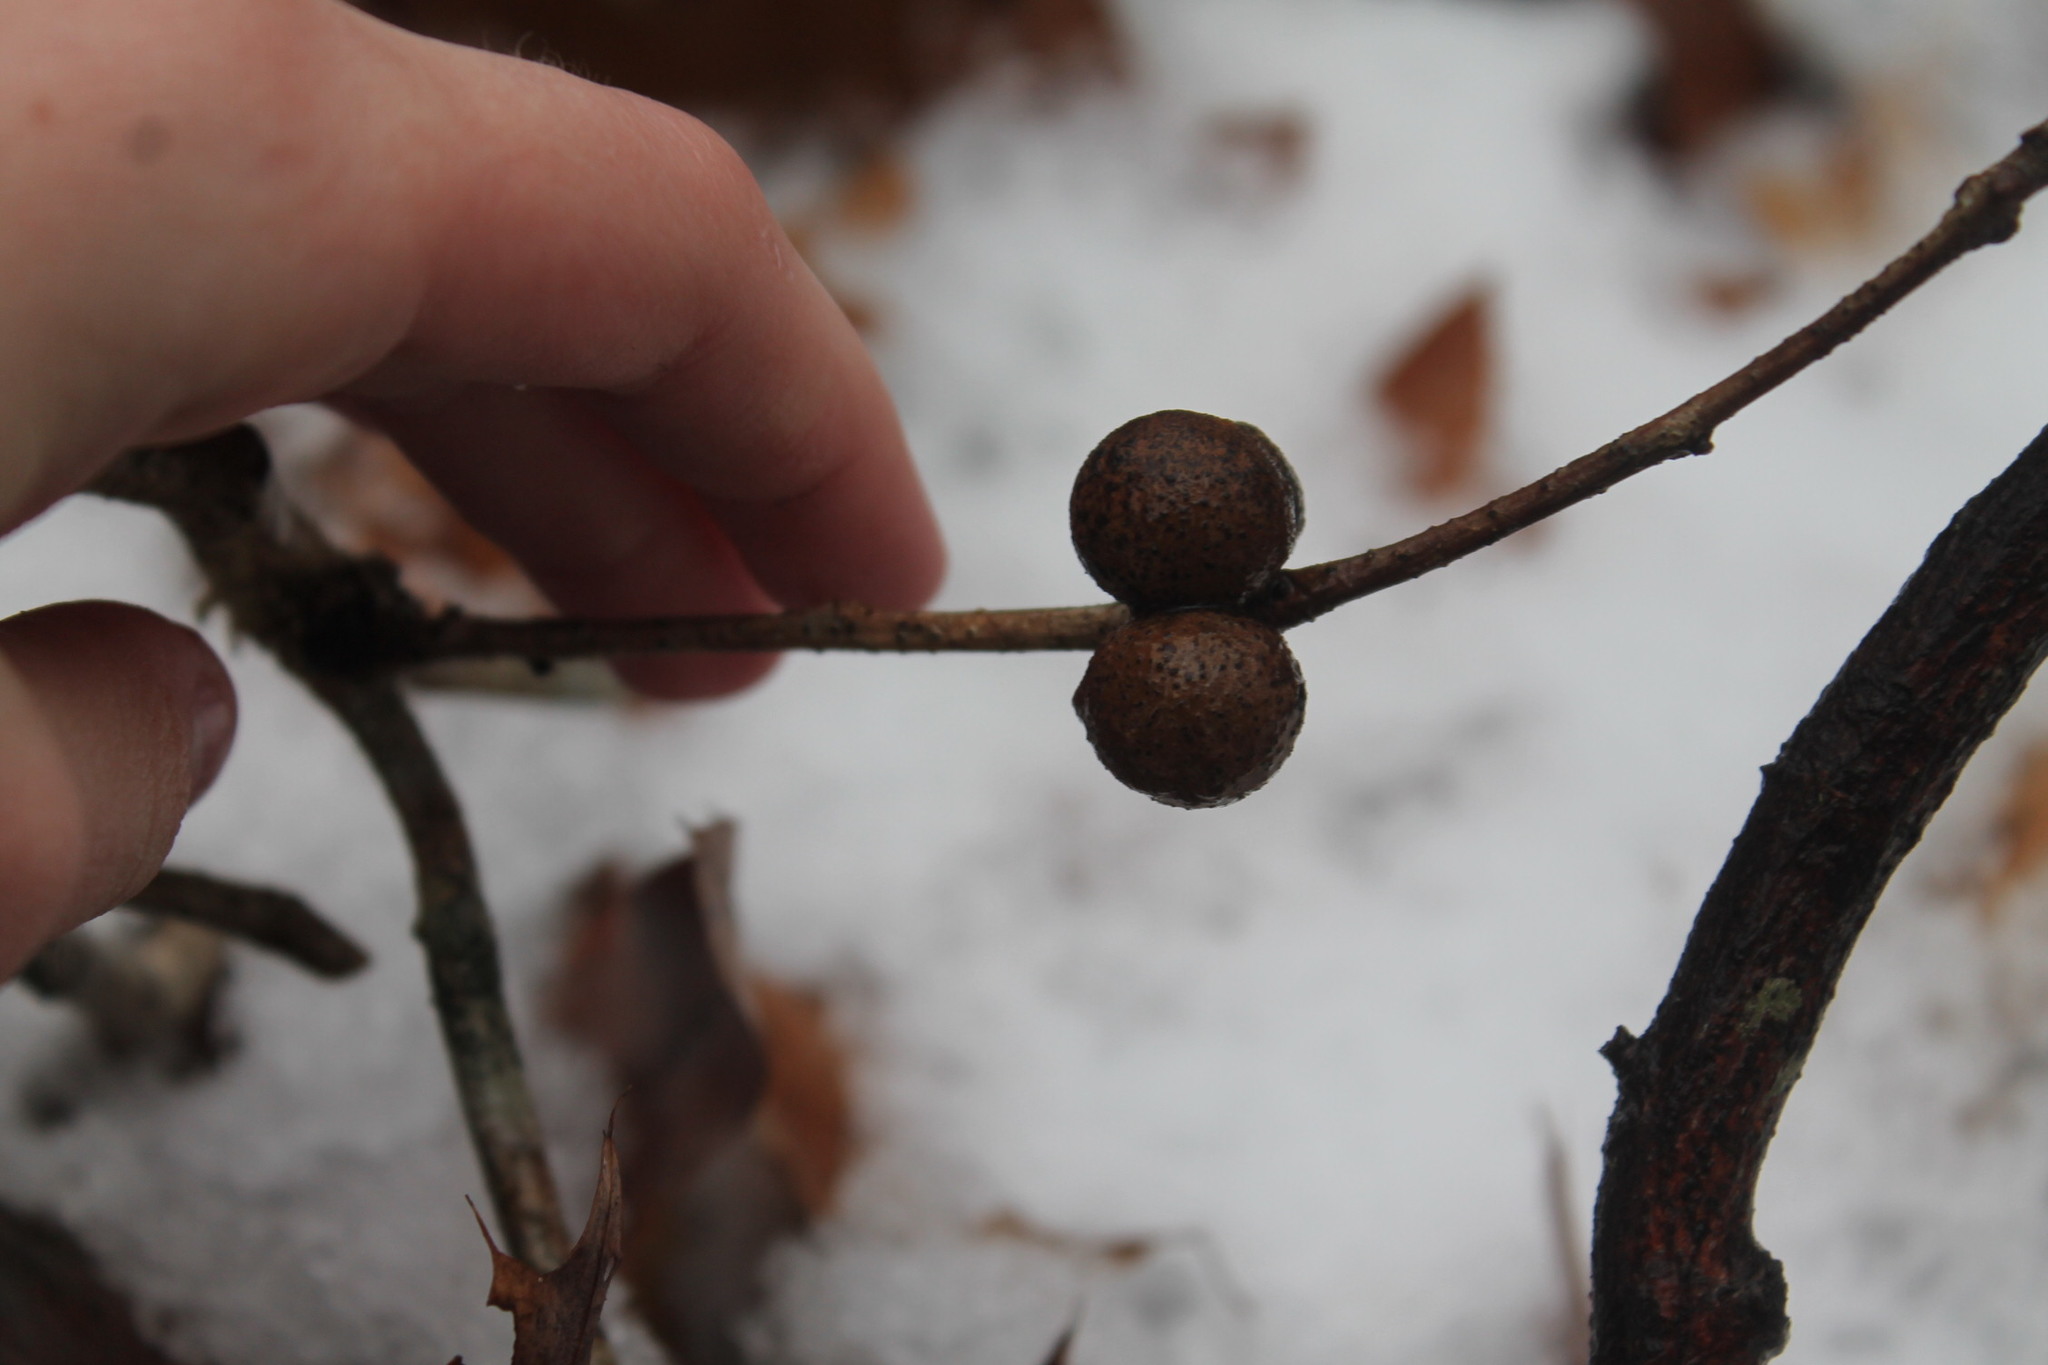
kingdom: Animalia
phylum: Arthropoda
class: Insecta
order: Hymenoptera
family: Cynipidae
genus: Disholcaspis
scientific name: Disholcaspis quercusglobulus
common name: Round bullet gall wasp
